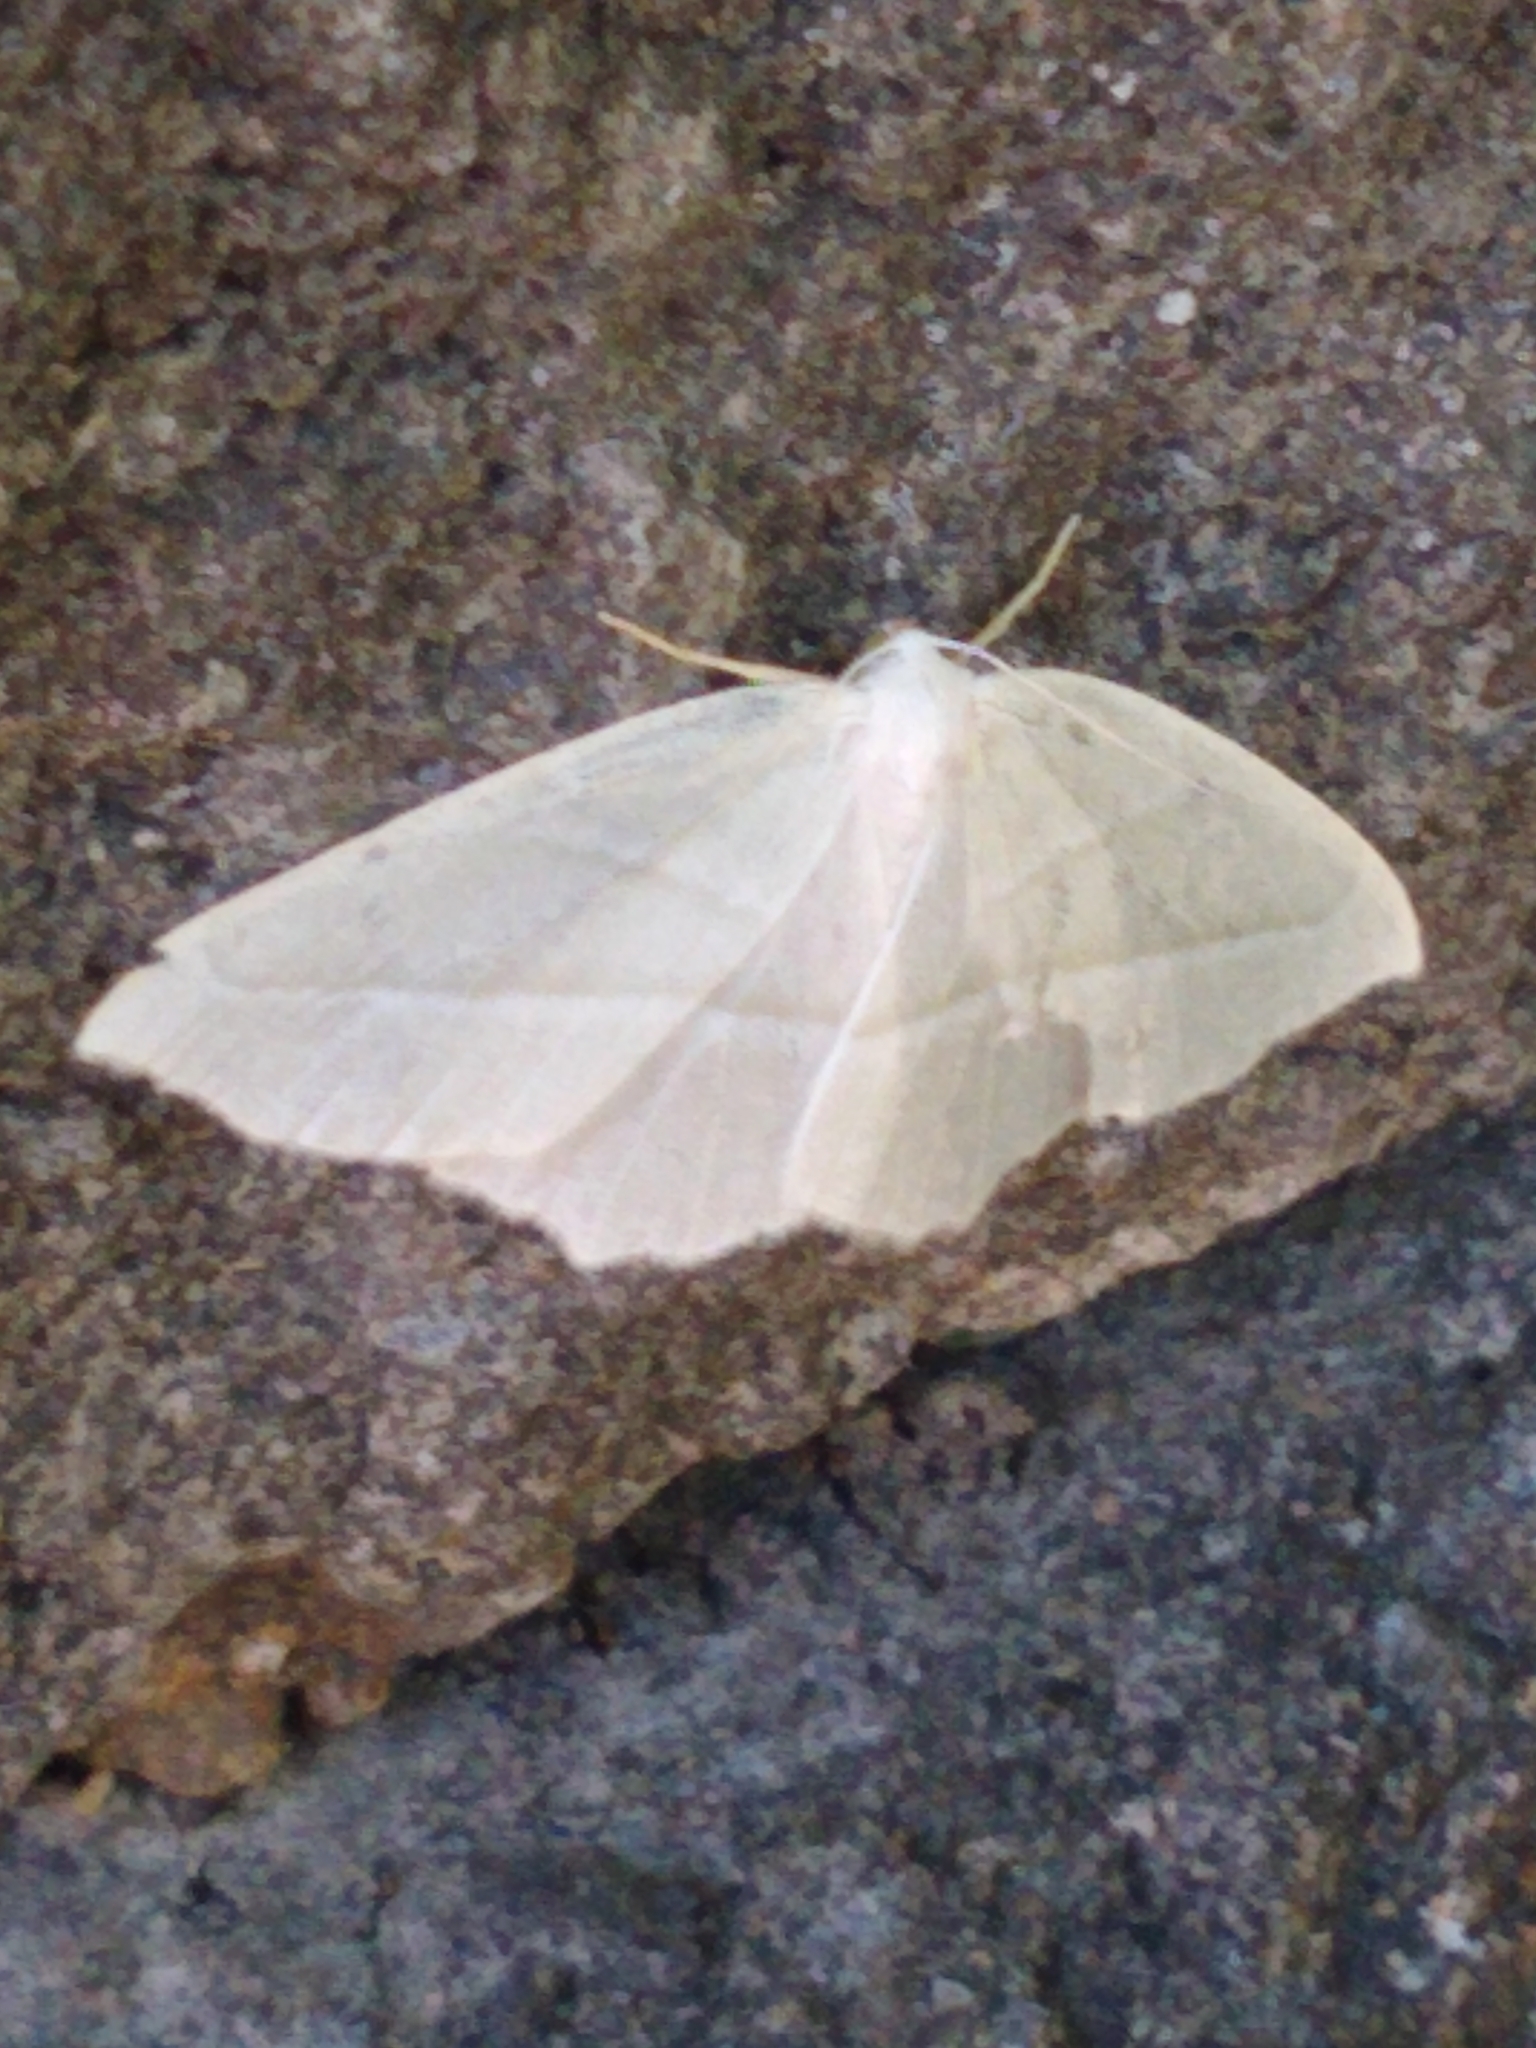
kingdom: Animalia
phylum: Arthropoda
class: Insecta
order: Lepidoptera
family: Geometridae
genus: Campaea
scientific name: Campaea perlata
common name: Fringed looper
